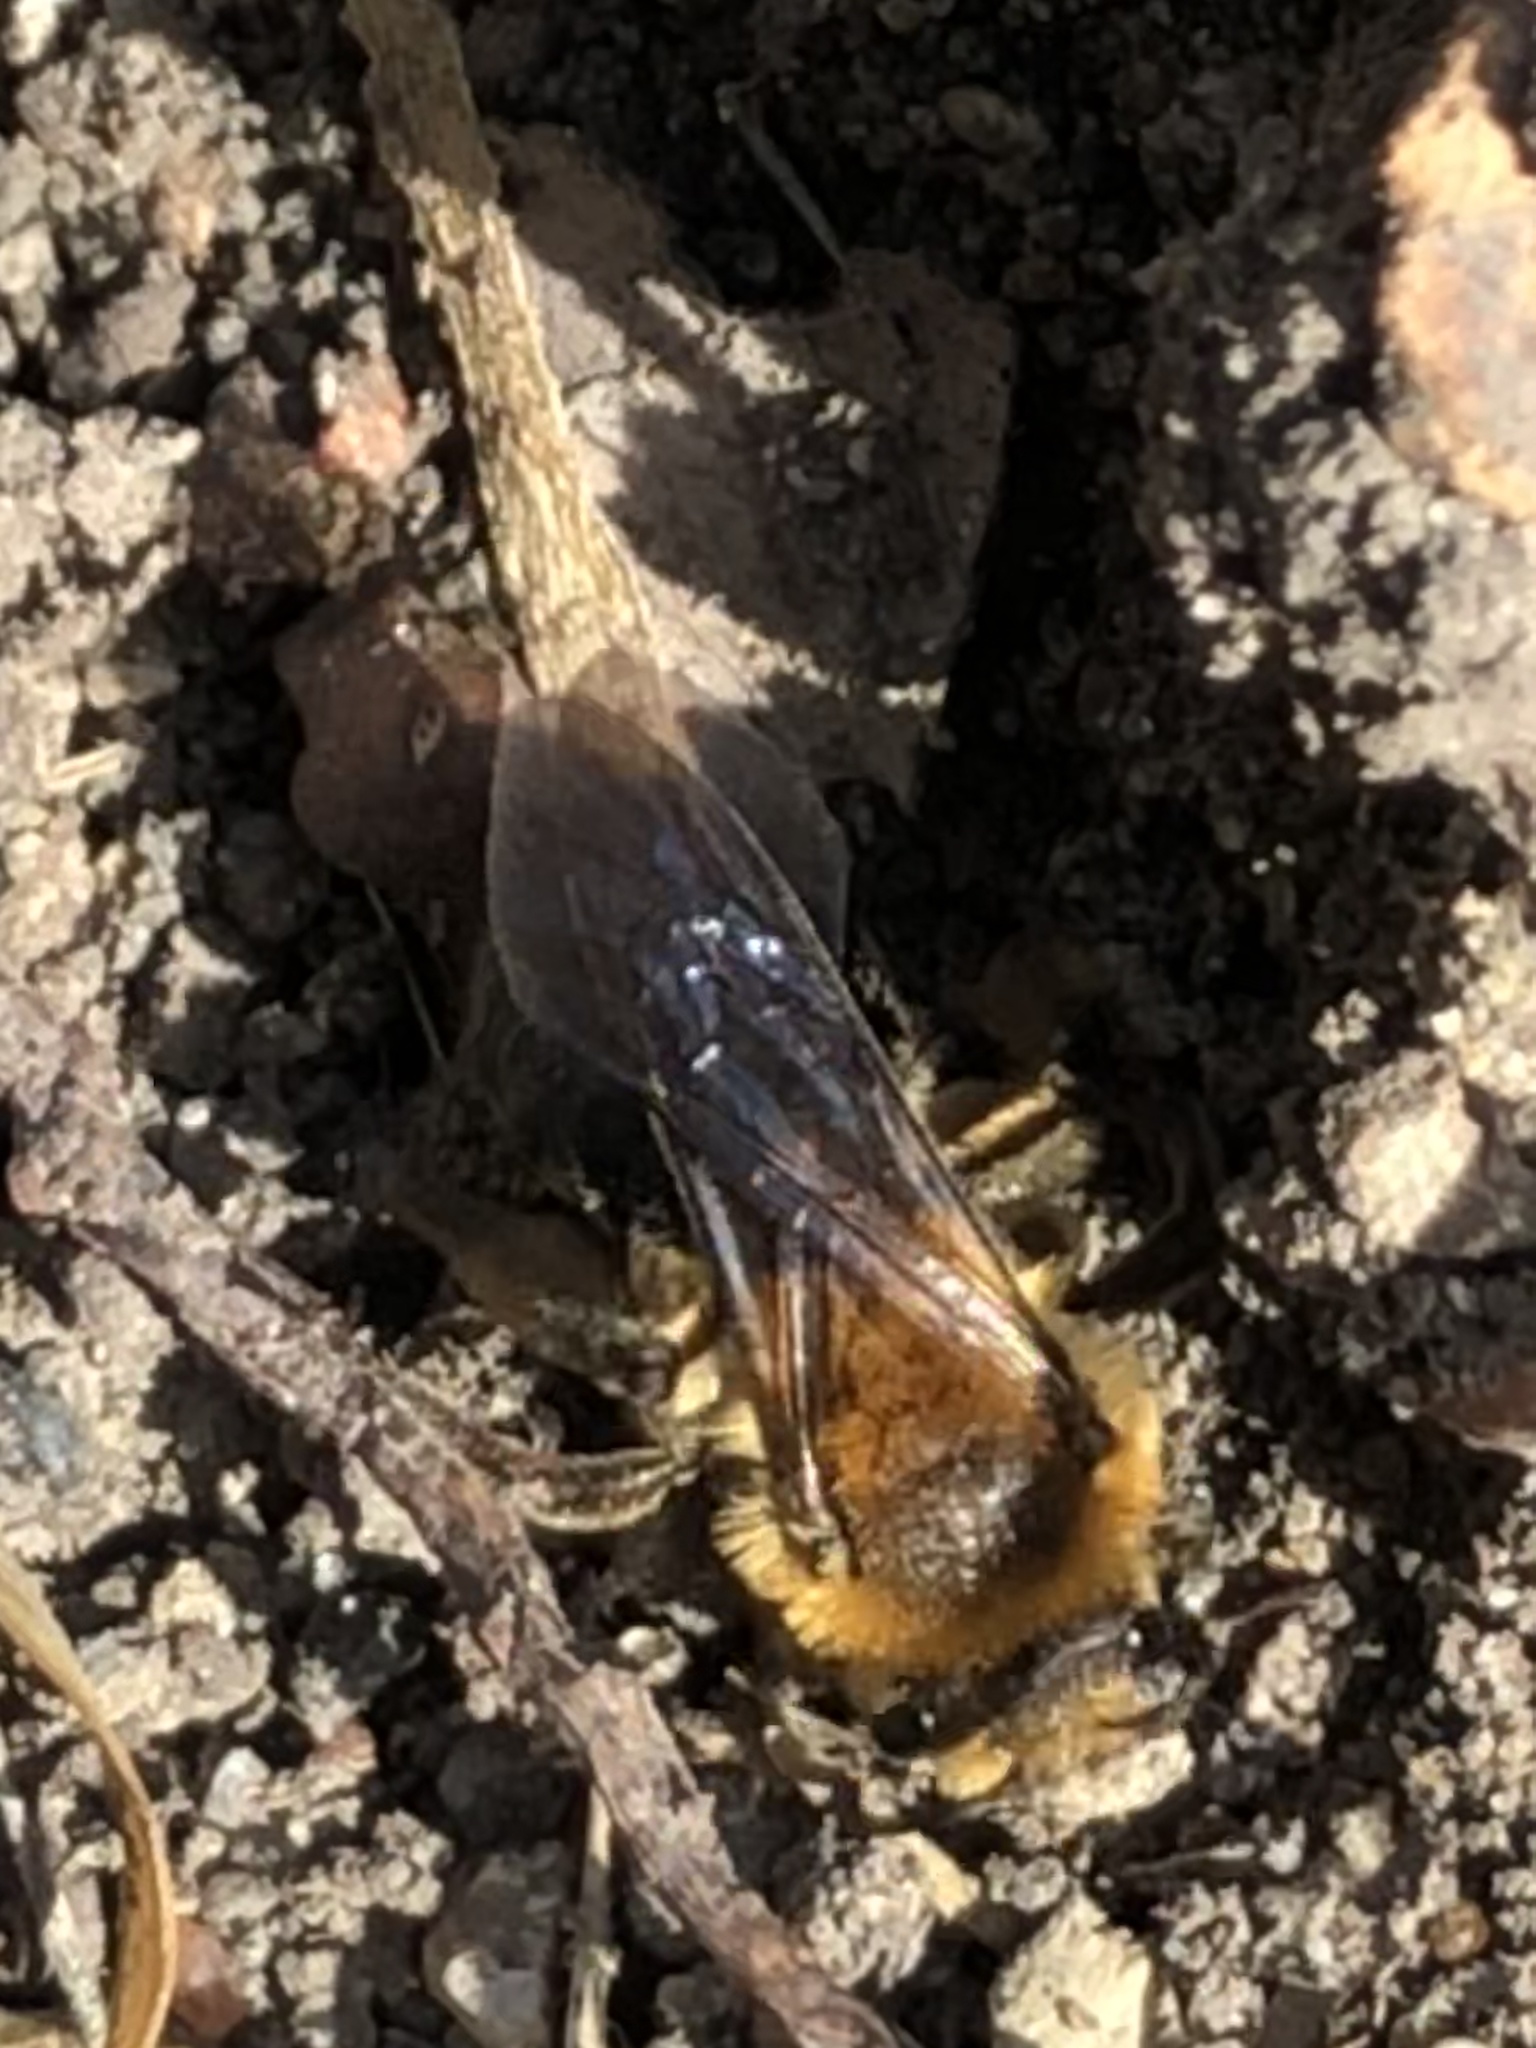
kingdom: Animalia
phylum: Arthropoda
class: Insecta
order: Hymenoptera
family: Andrenidae
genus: Andrena
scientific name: Andrena dunningi
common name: Dunning's miner
